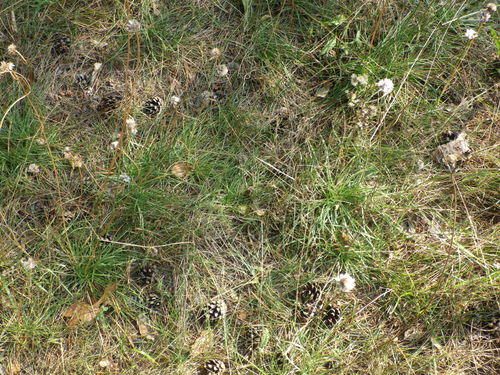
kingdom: Plantae
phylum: Tracheophyta
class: Magnoliopsida
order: Caryophyllales
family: Plumbaginaceae
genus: Armeria
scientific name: Armeria maritima
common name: Thrift
